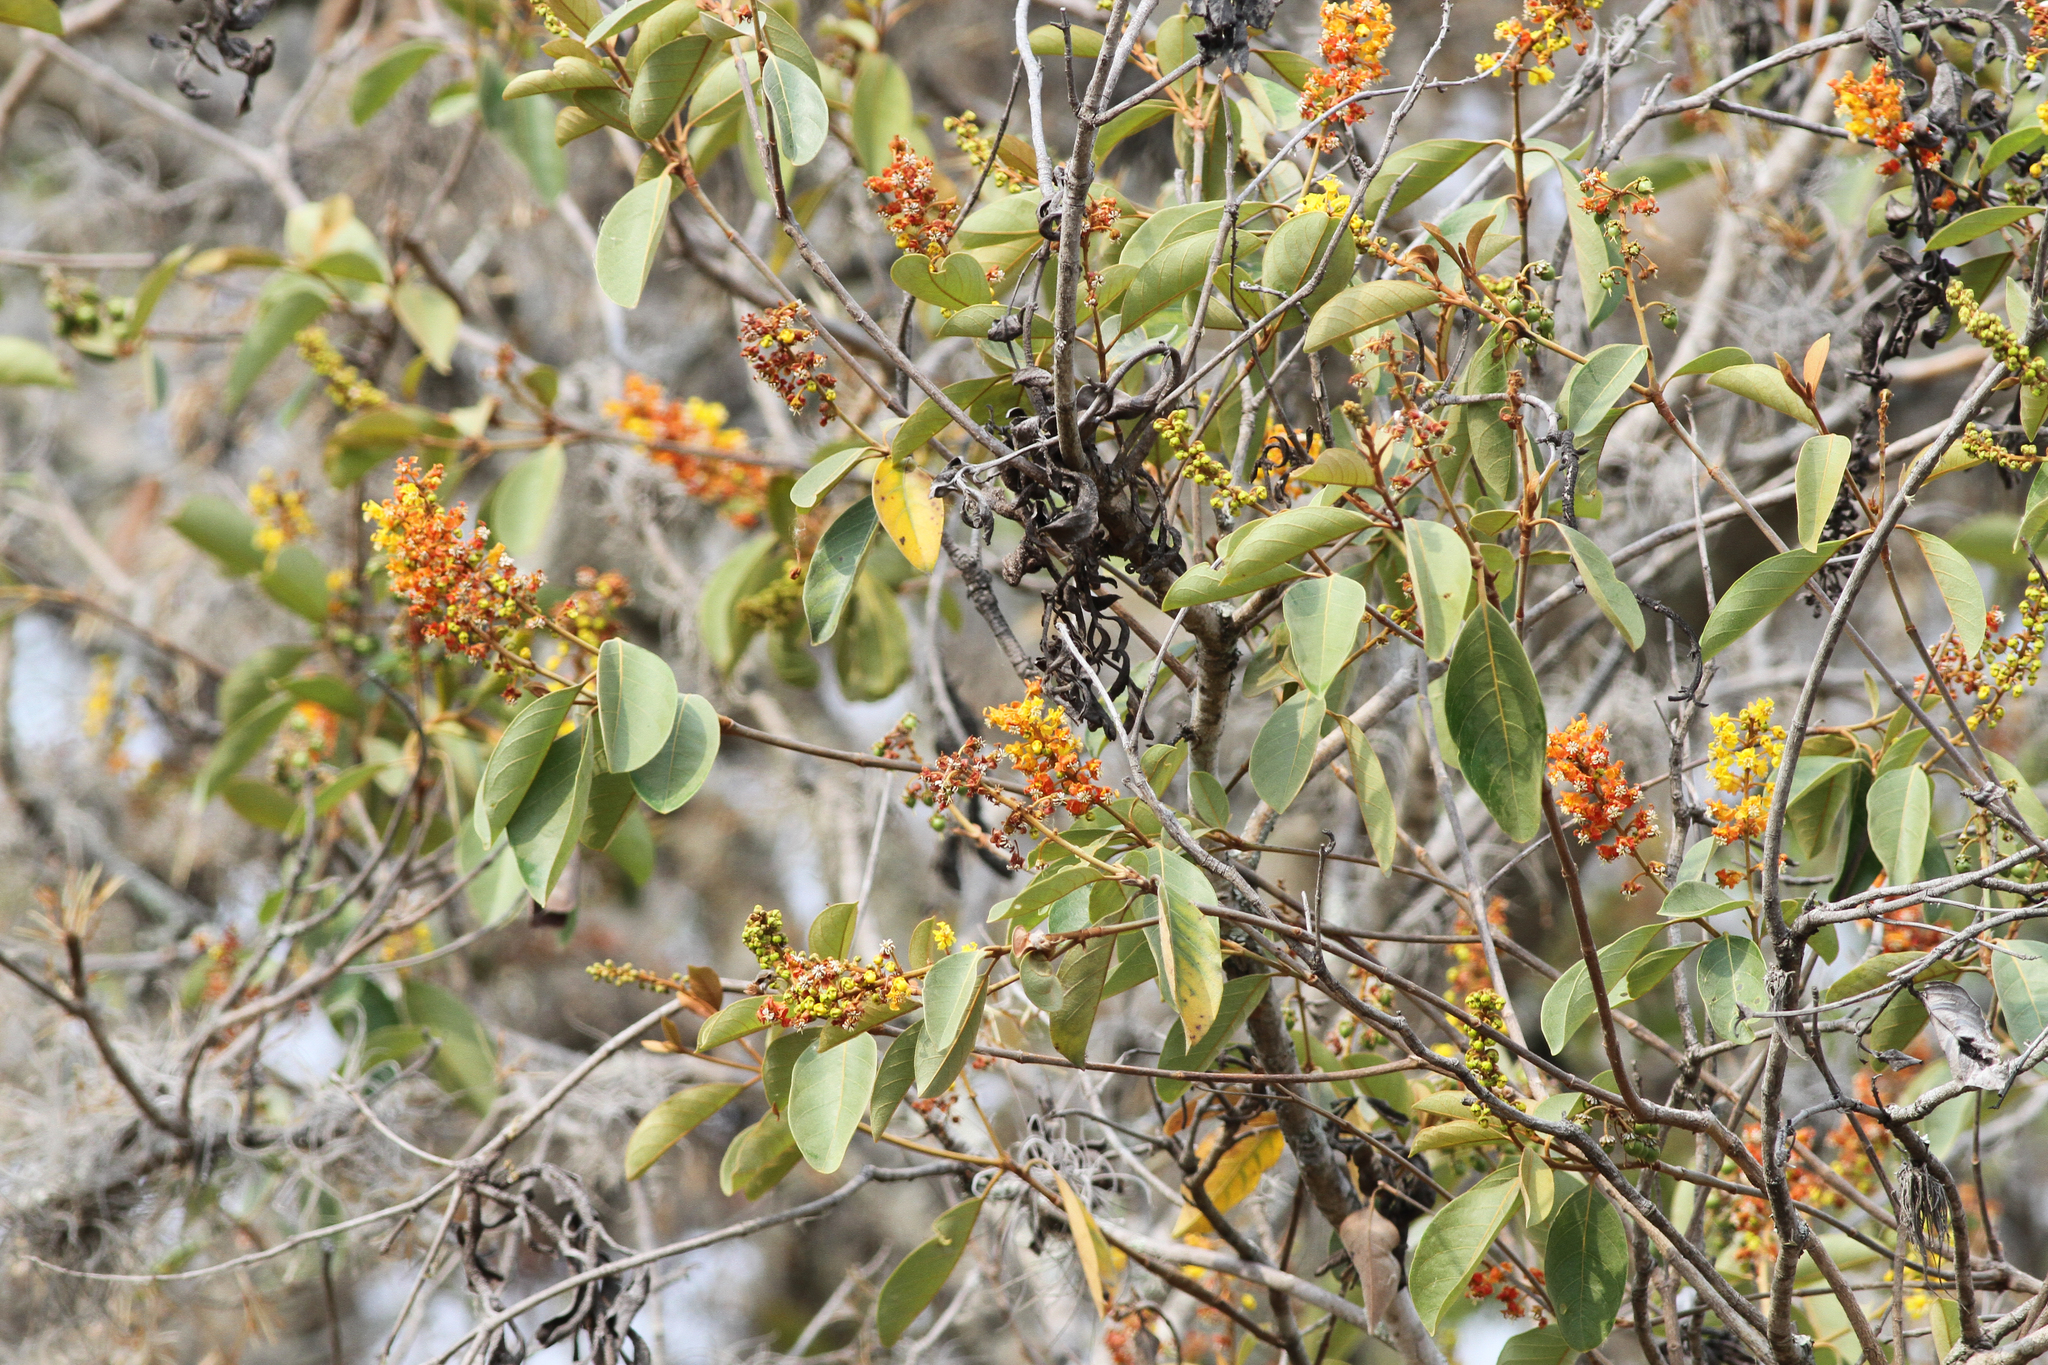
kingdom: Plantae
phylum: Tracheophyta
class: Magnoliopsida
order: Malpighiales
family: Malpighiaceae
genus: Byrsonima
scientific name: Byrsonima crassifolia
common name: Golden spoon
